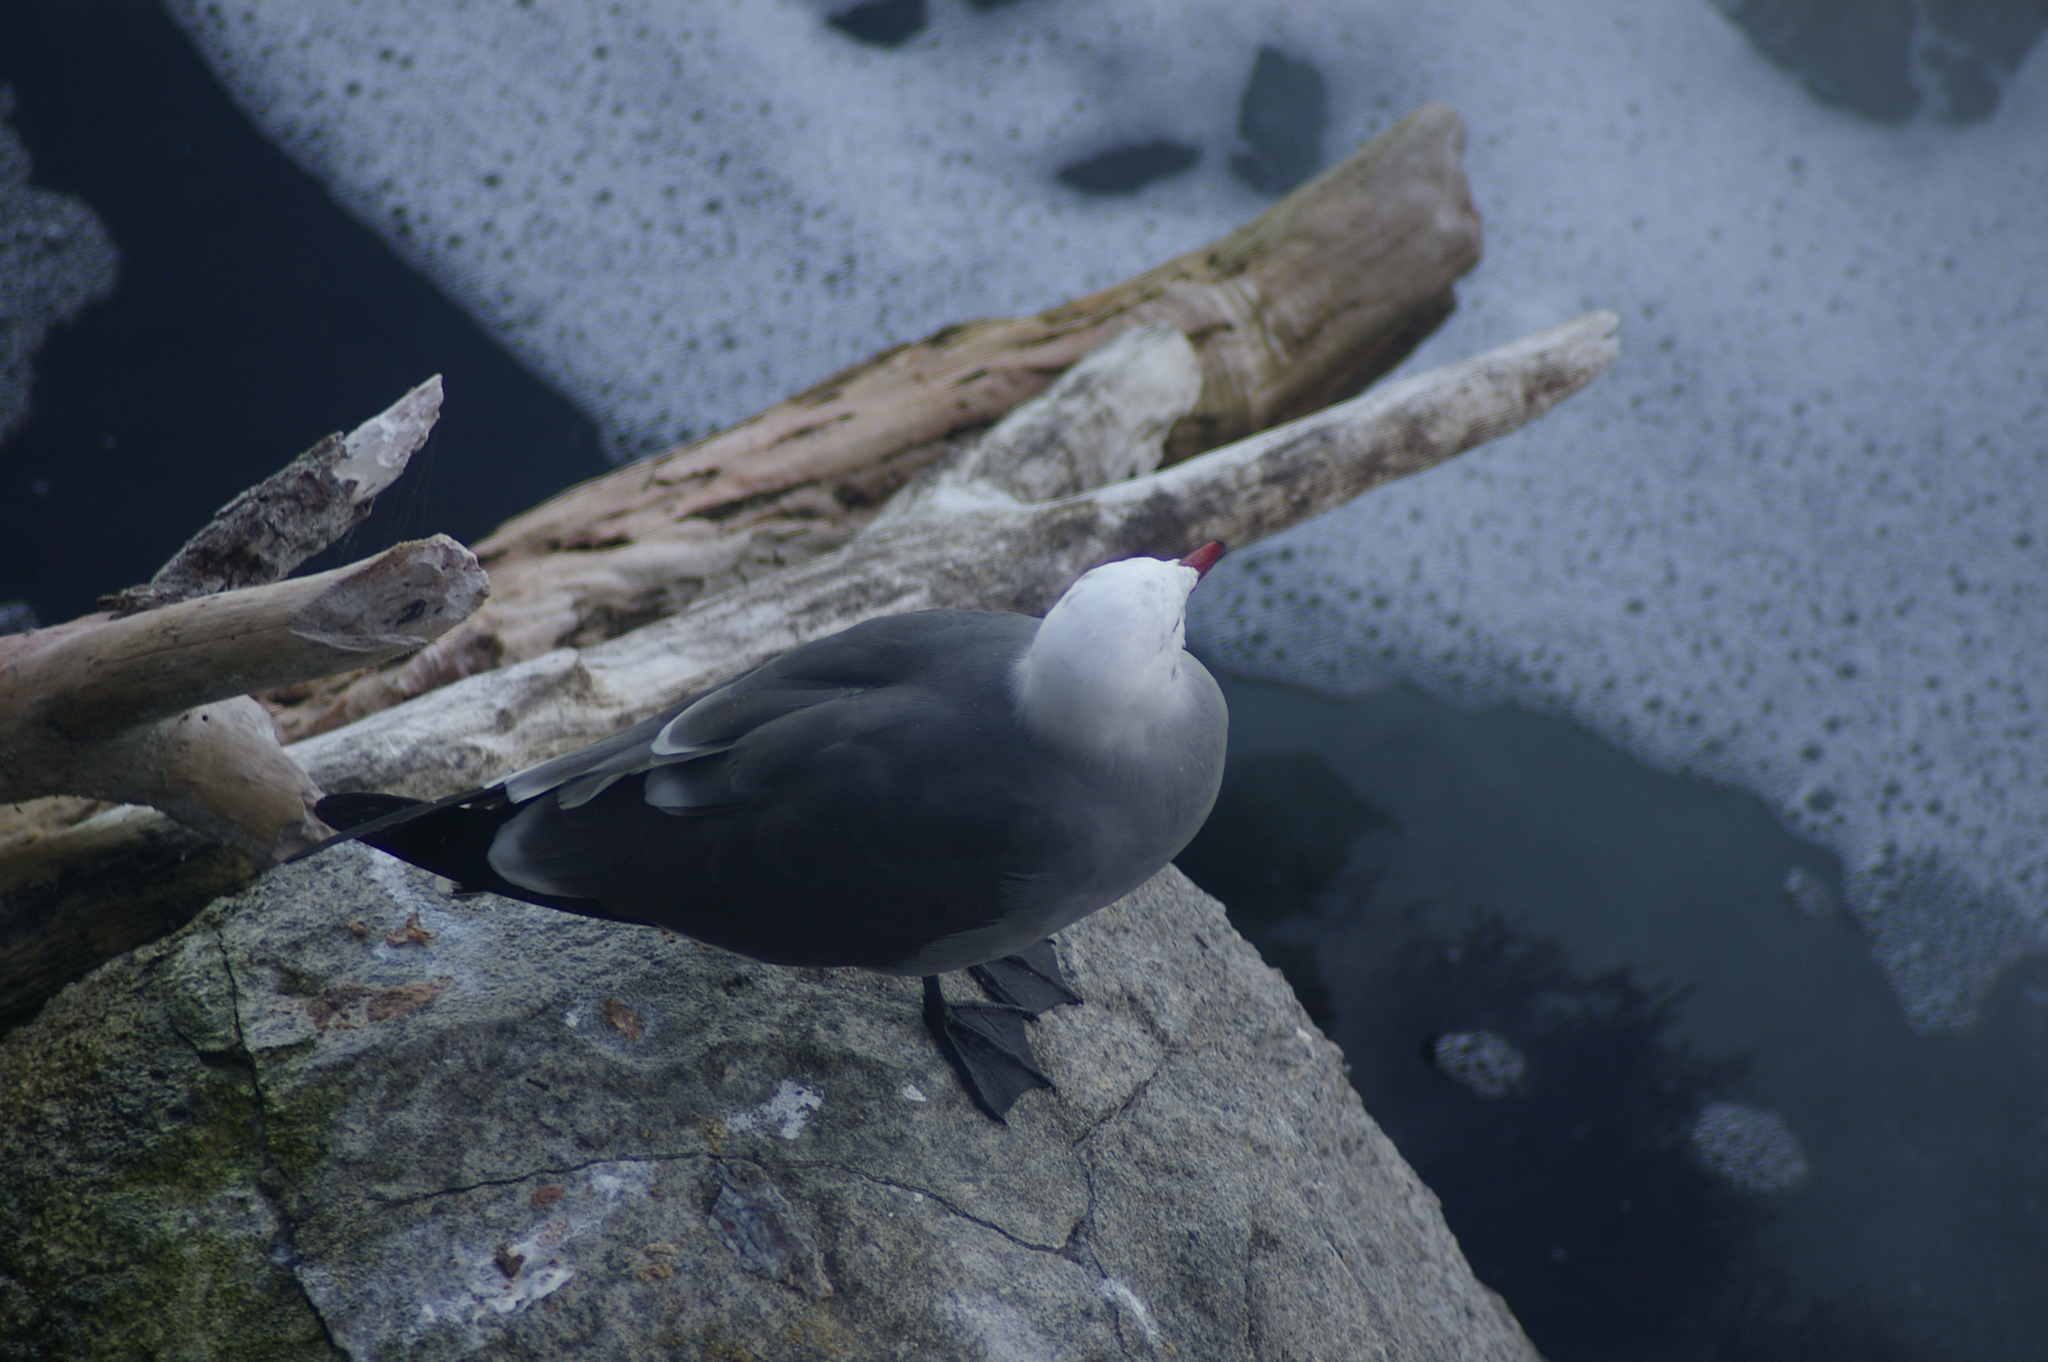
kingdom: Animalia
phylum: Chordata
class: Aves
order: Charadriiformes
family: Laridae
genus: Larus
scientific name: Larus heermanni
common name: Heermann's gull
